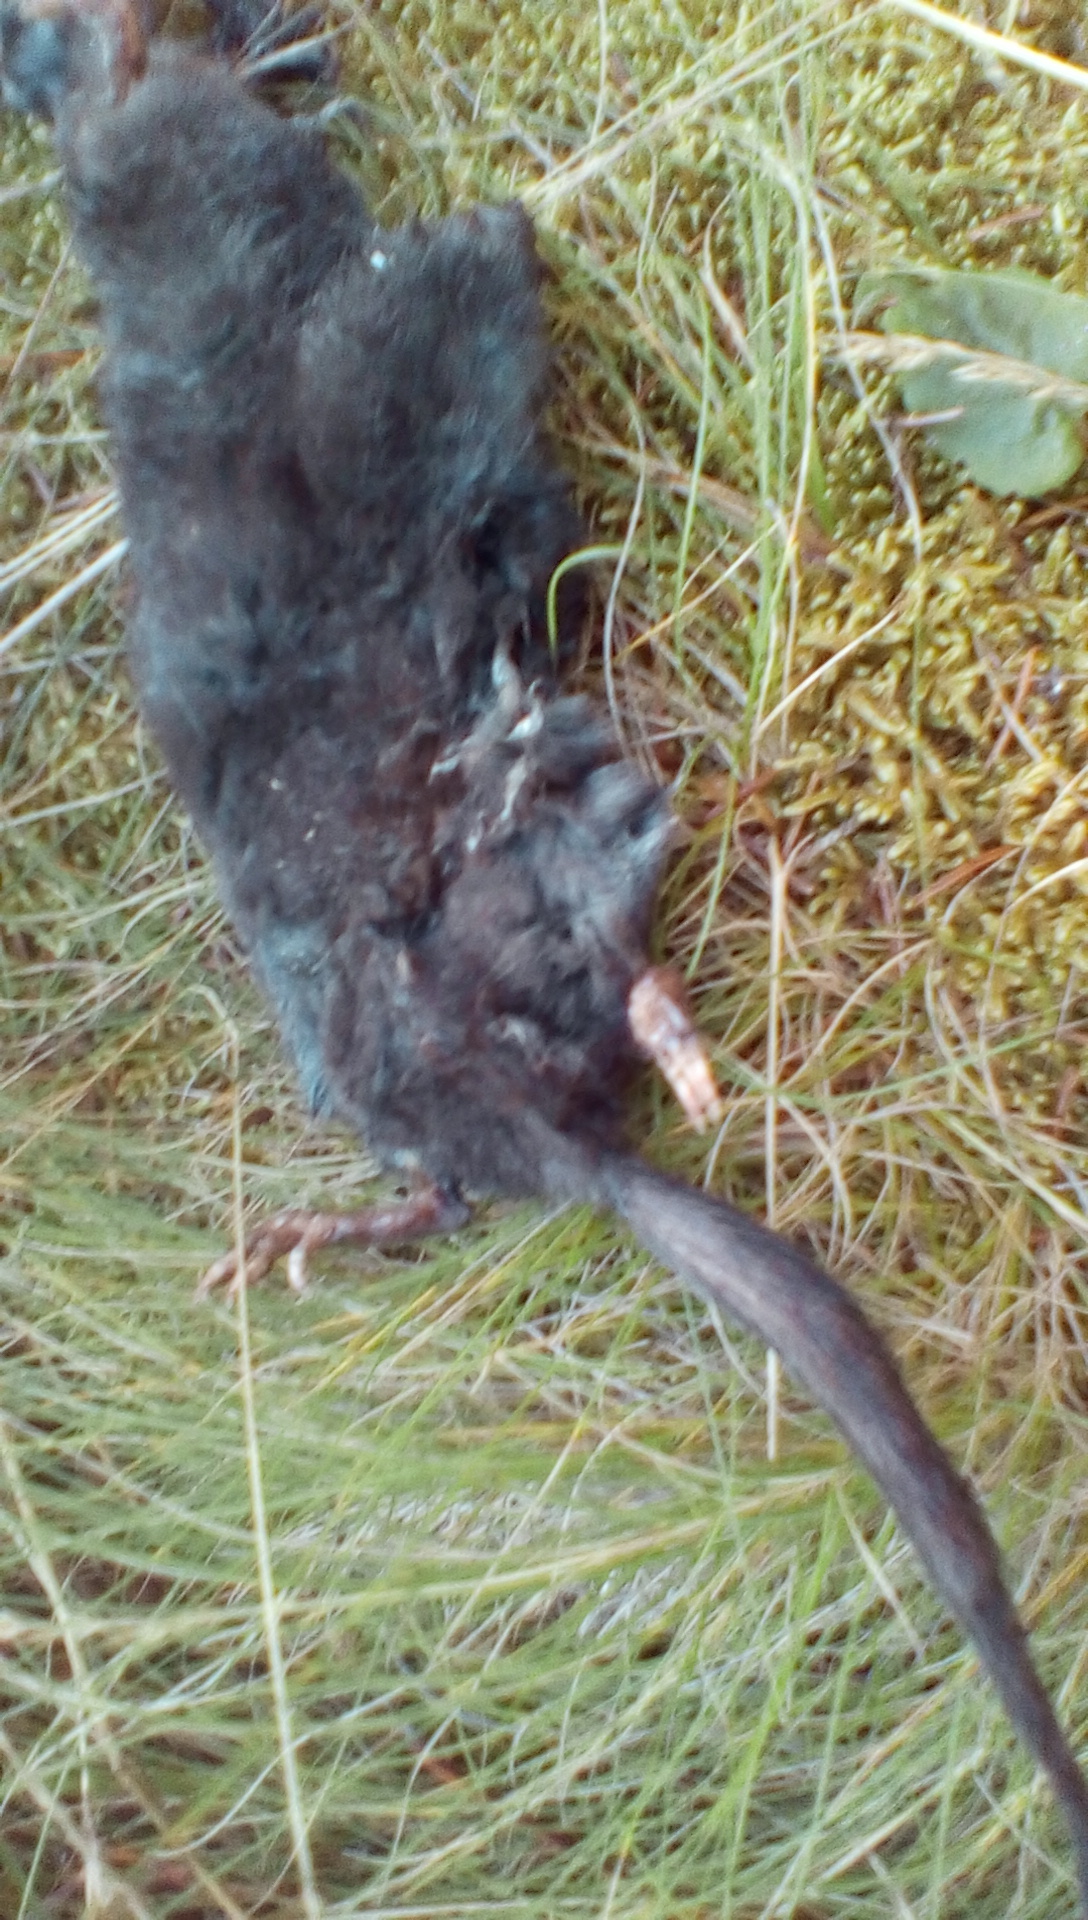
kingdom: Animalia
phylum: Chordata
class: Mammalia
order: Soricomorpha
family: Talpidae
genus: Condylura
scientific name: Condylura cristata
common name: Star-nosed mole
